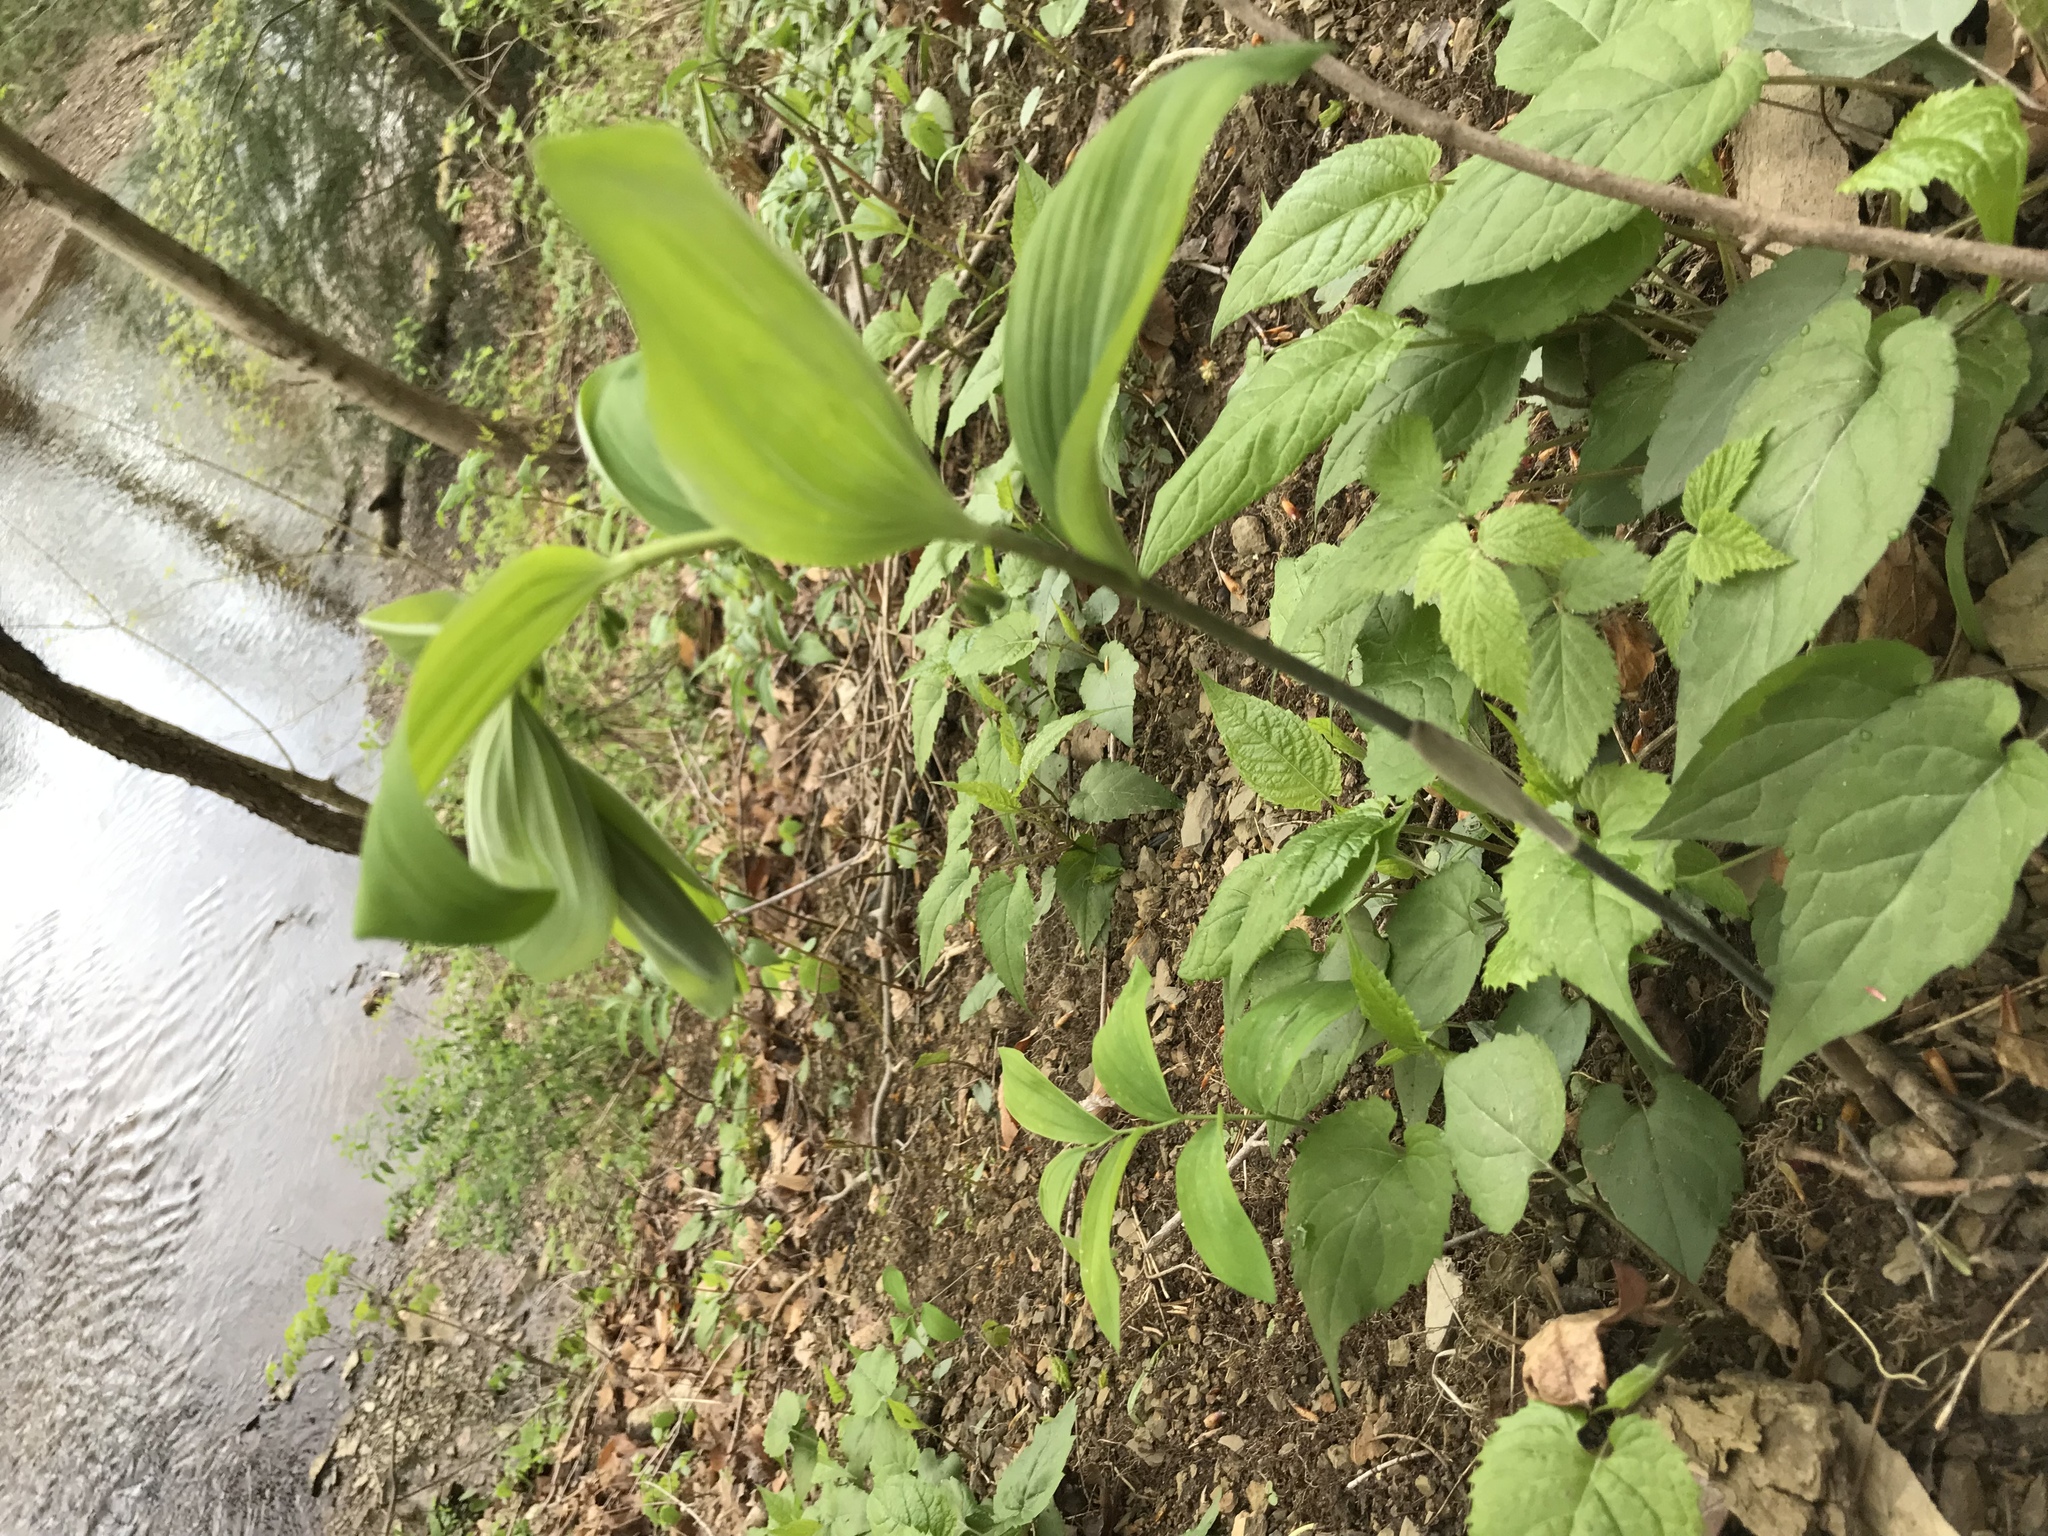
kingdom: Plantae
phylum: Tracheophyta
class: Liliopsida
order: Asparagales
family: Asparagaceae
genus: Polygonatum
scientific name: Polygonatum pubescens
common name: Downy solomon's seal
